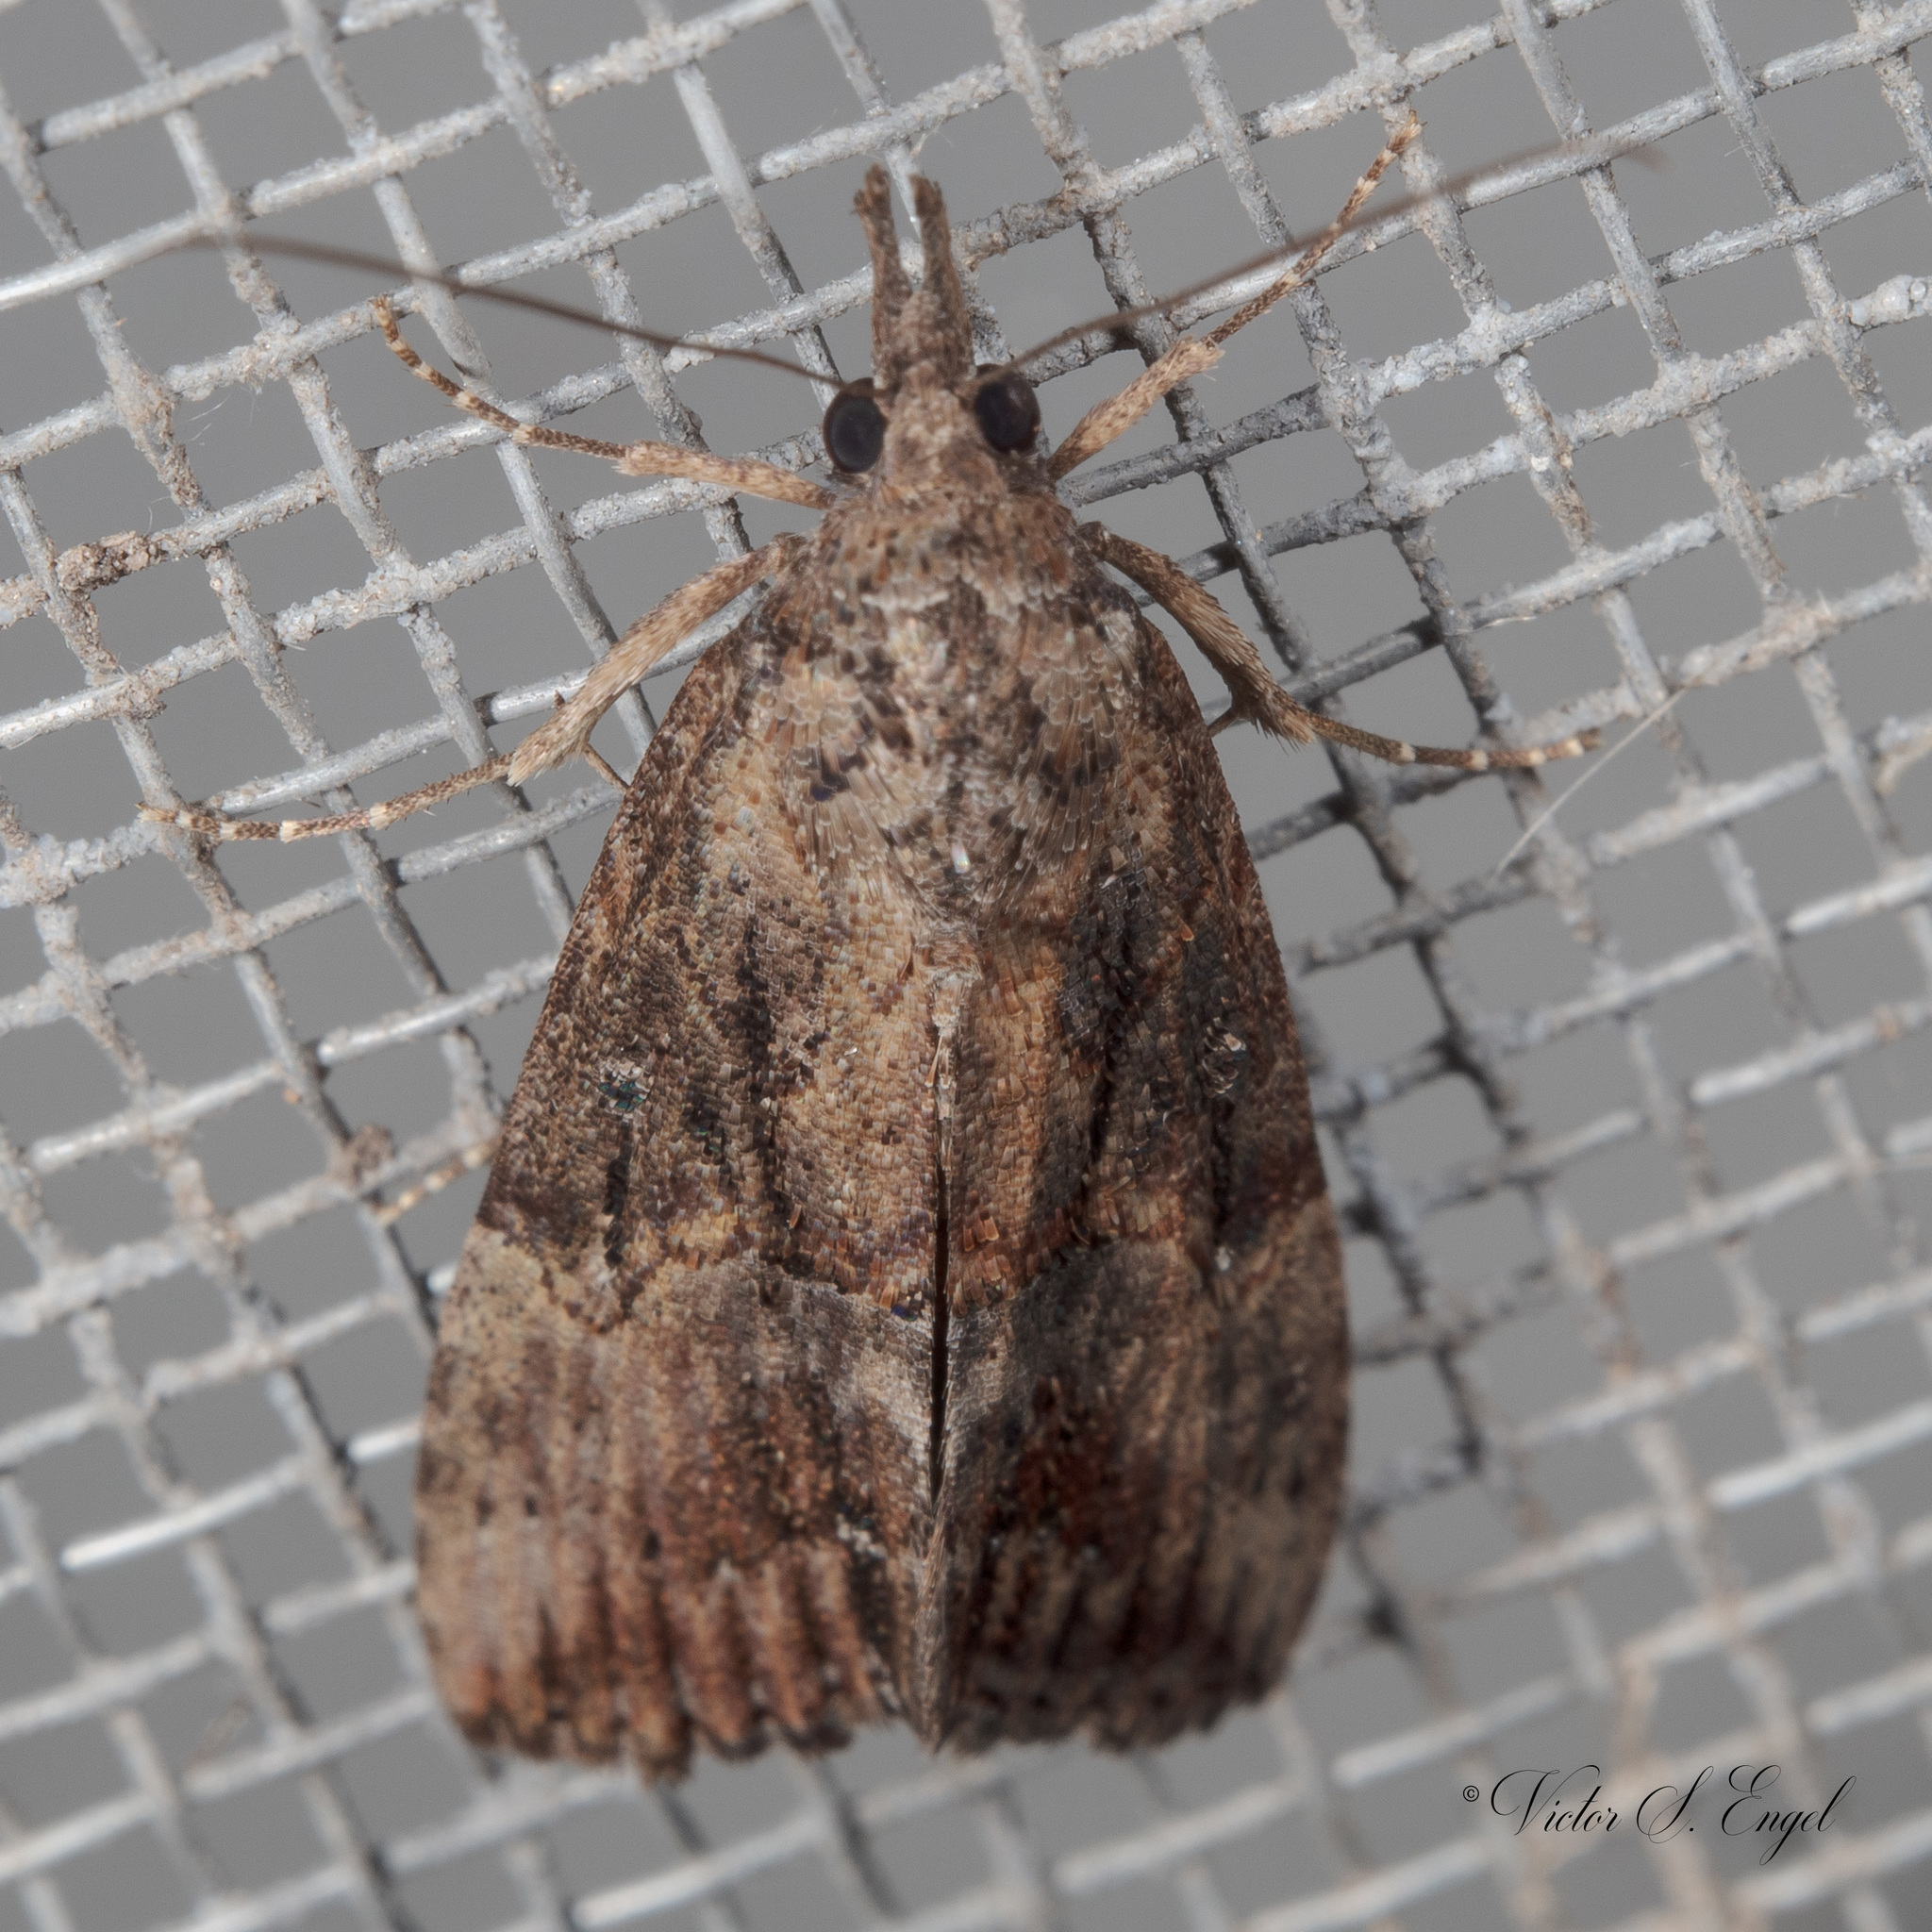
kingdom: Animalia
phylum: Arthropoda
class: Insecta
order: Lepidoptera
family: Erebidae
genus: Hypena
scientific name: Hypena scabra
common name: Green cloverworm
